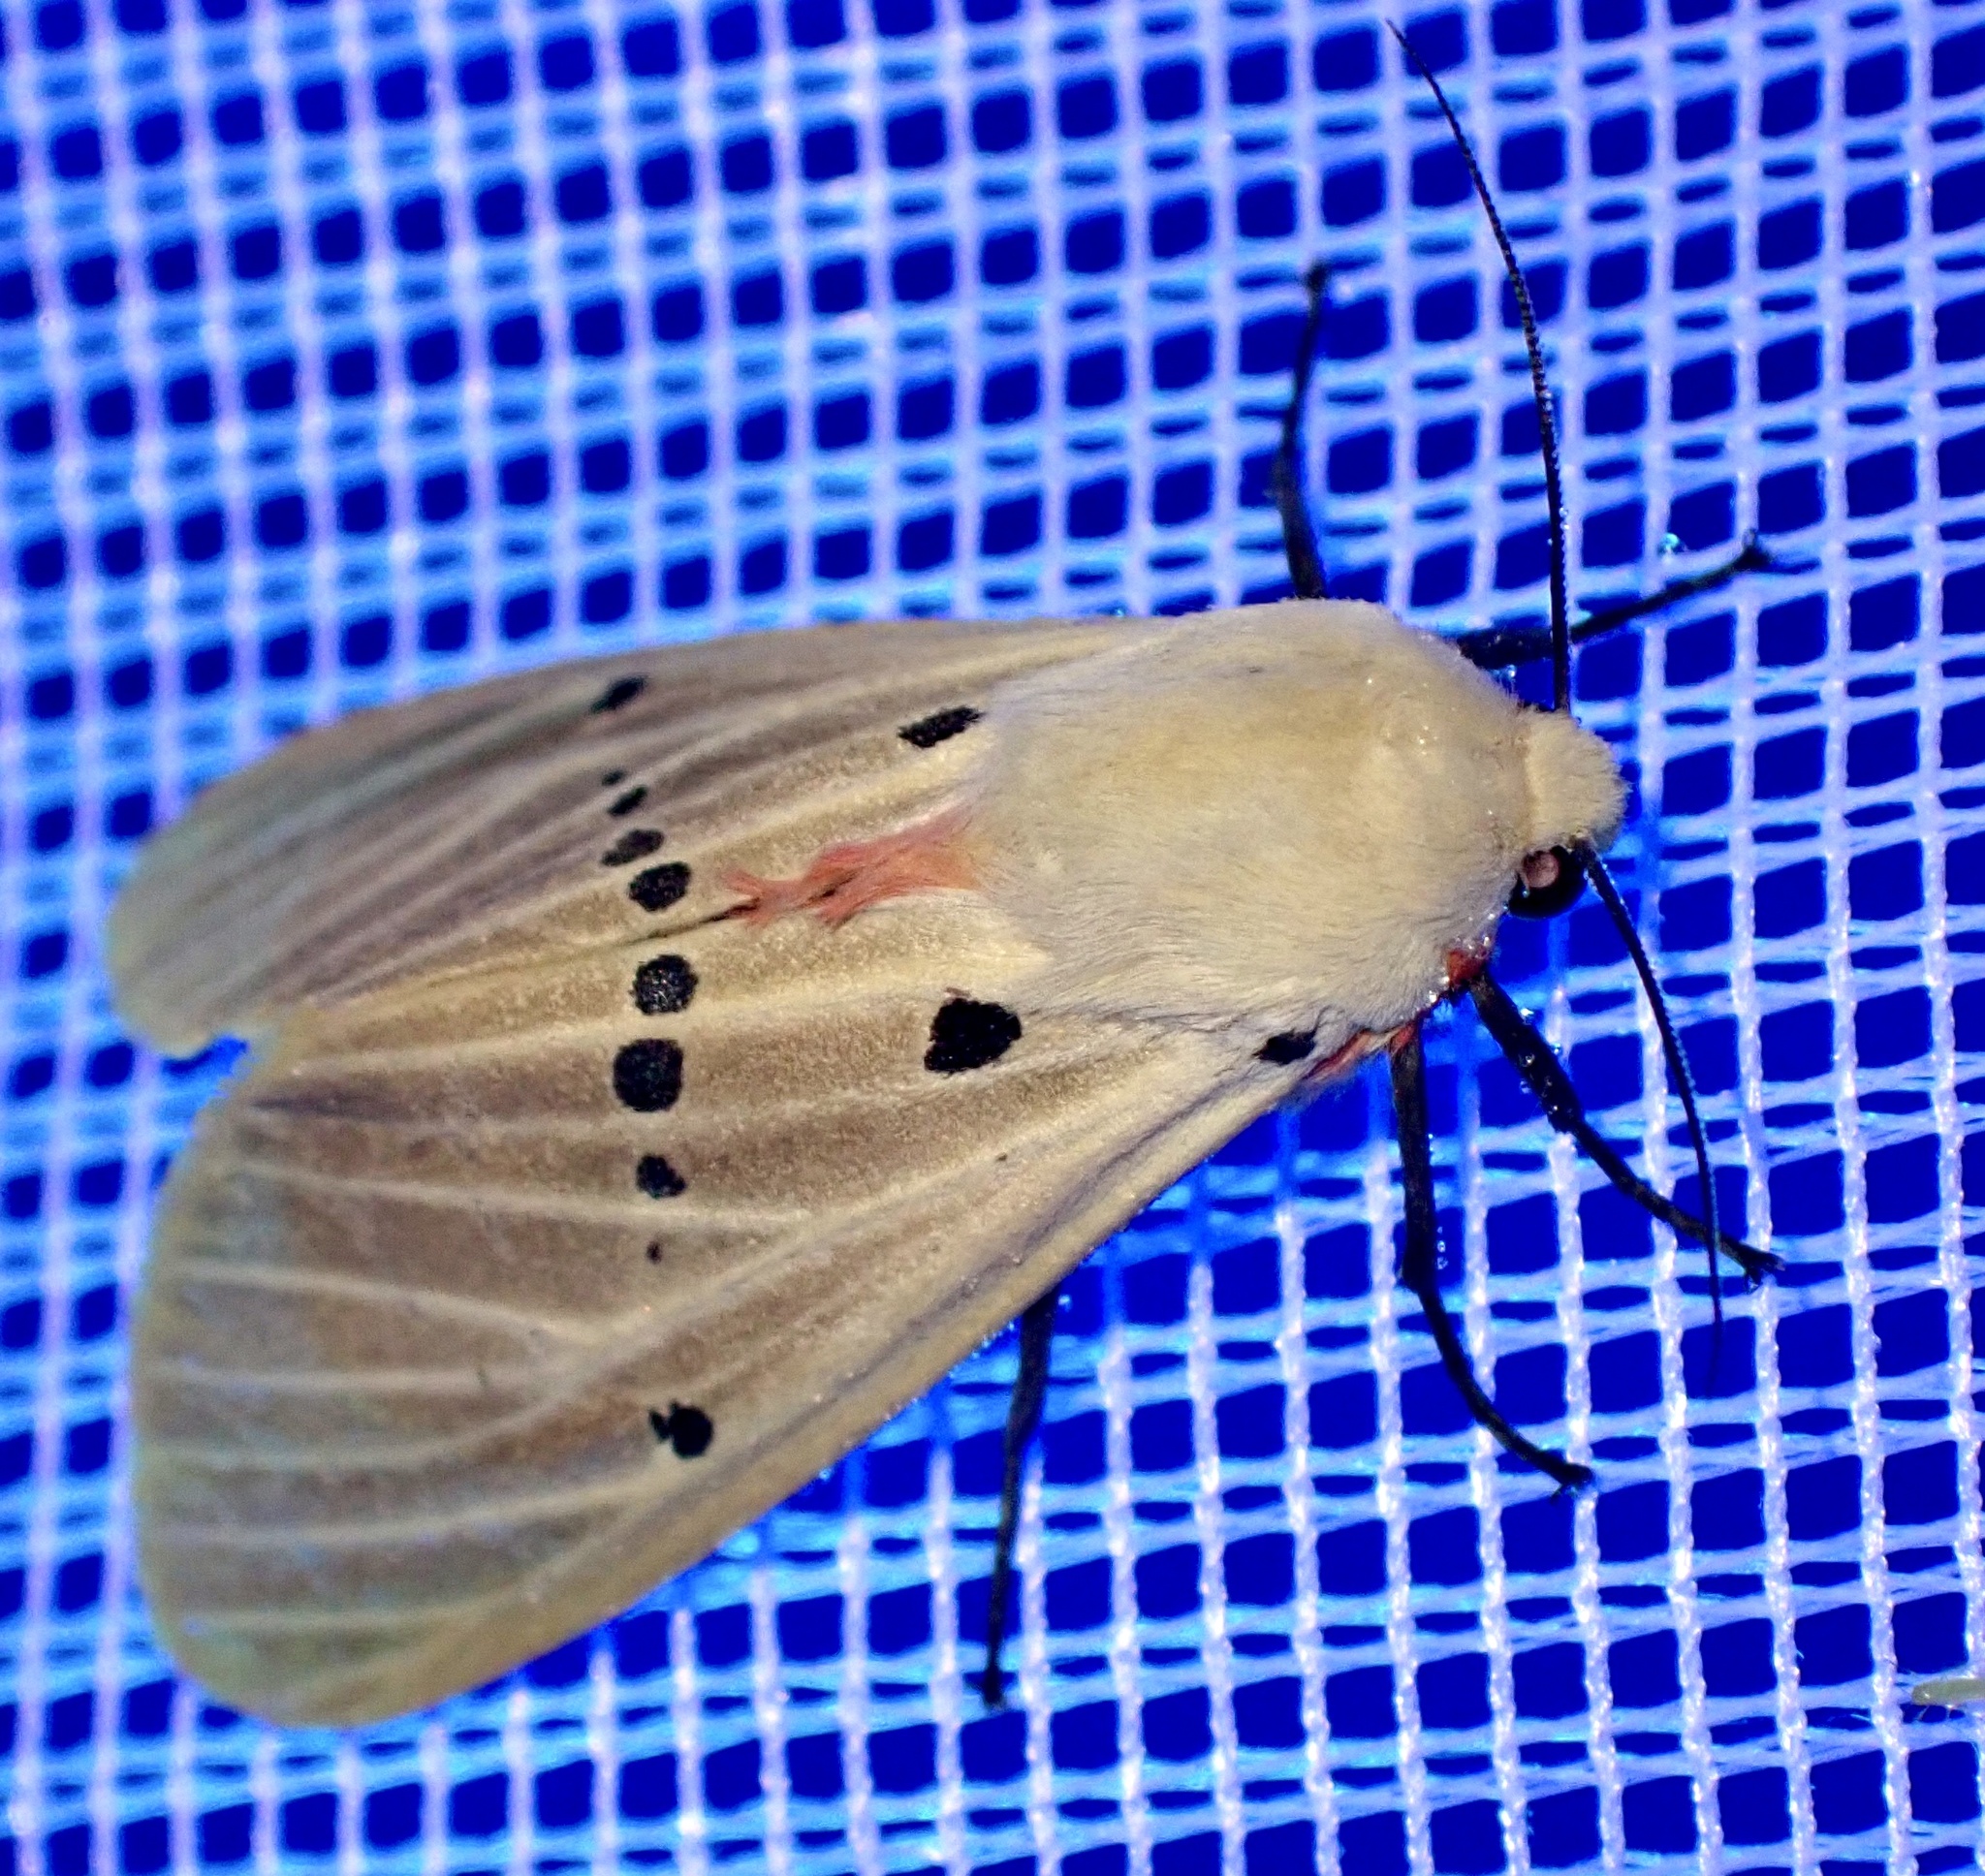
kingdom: Animalia
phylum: Arthropoda
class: Insecta
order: Lepidoptera
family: Erebidae
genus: Nicetosoma
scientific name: Nicetosoma
